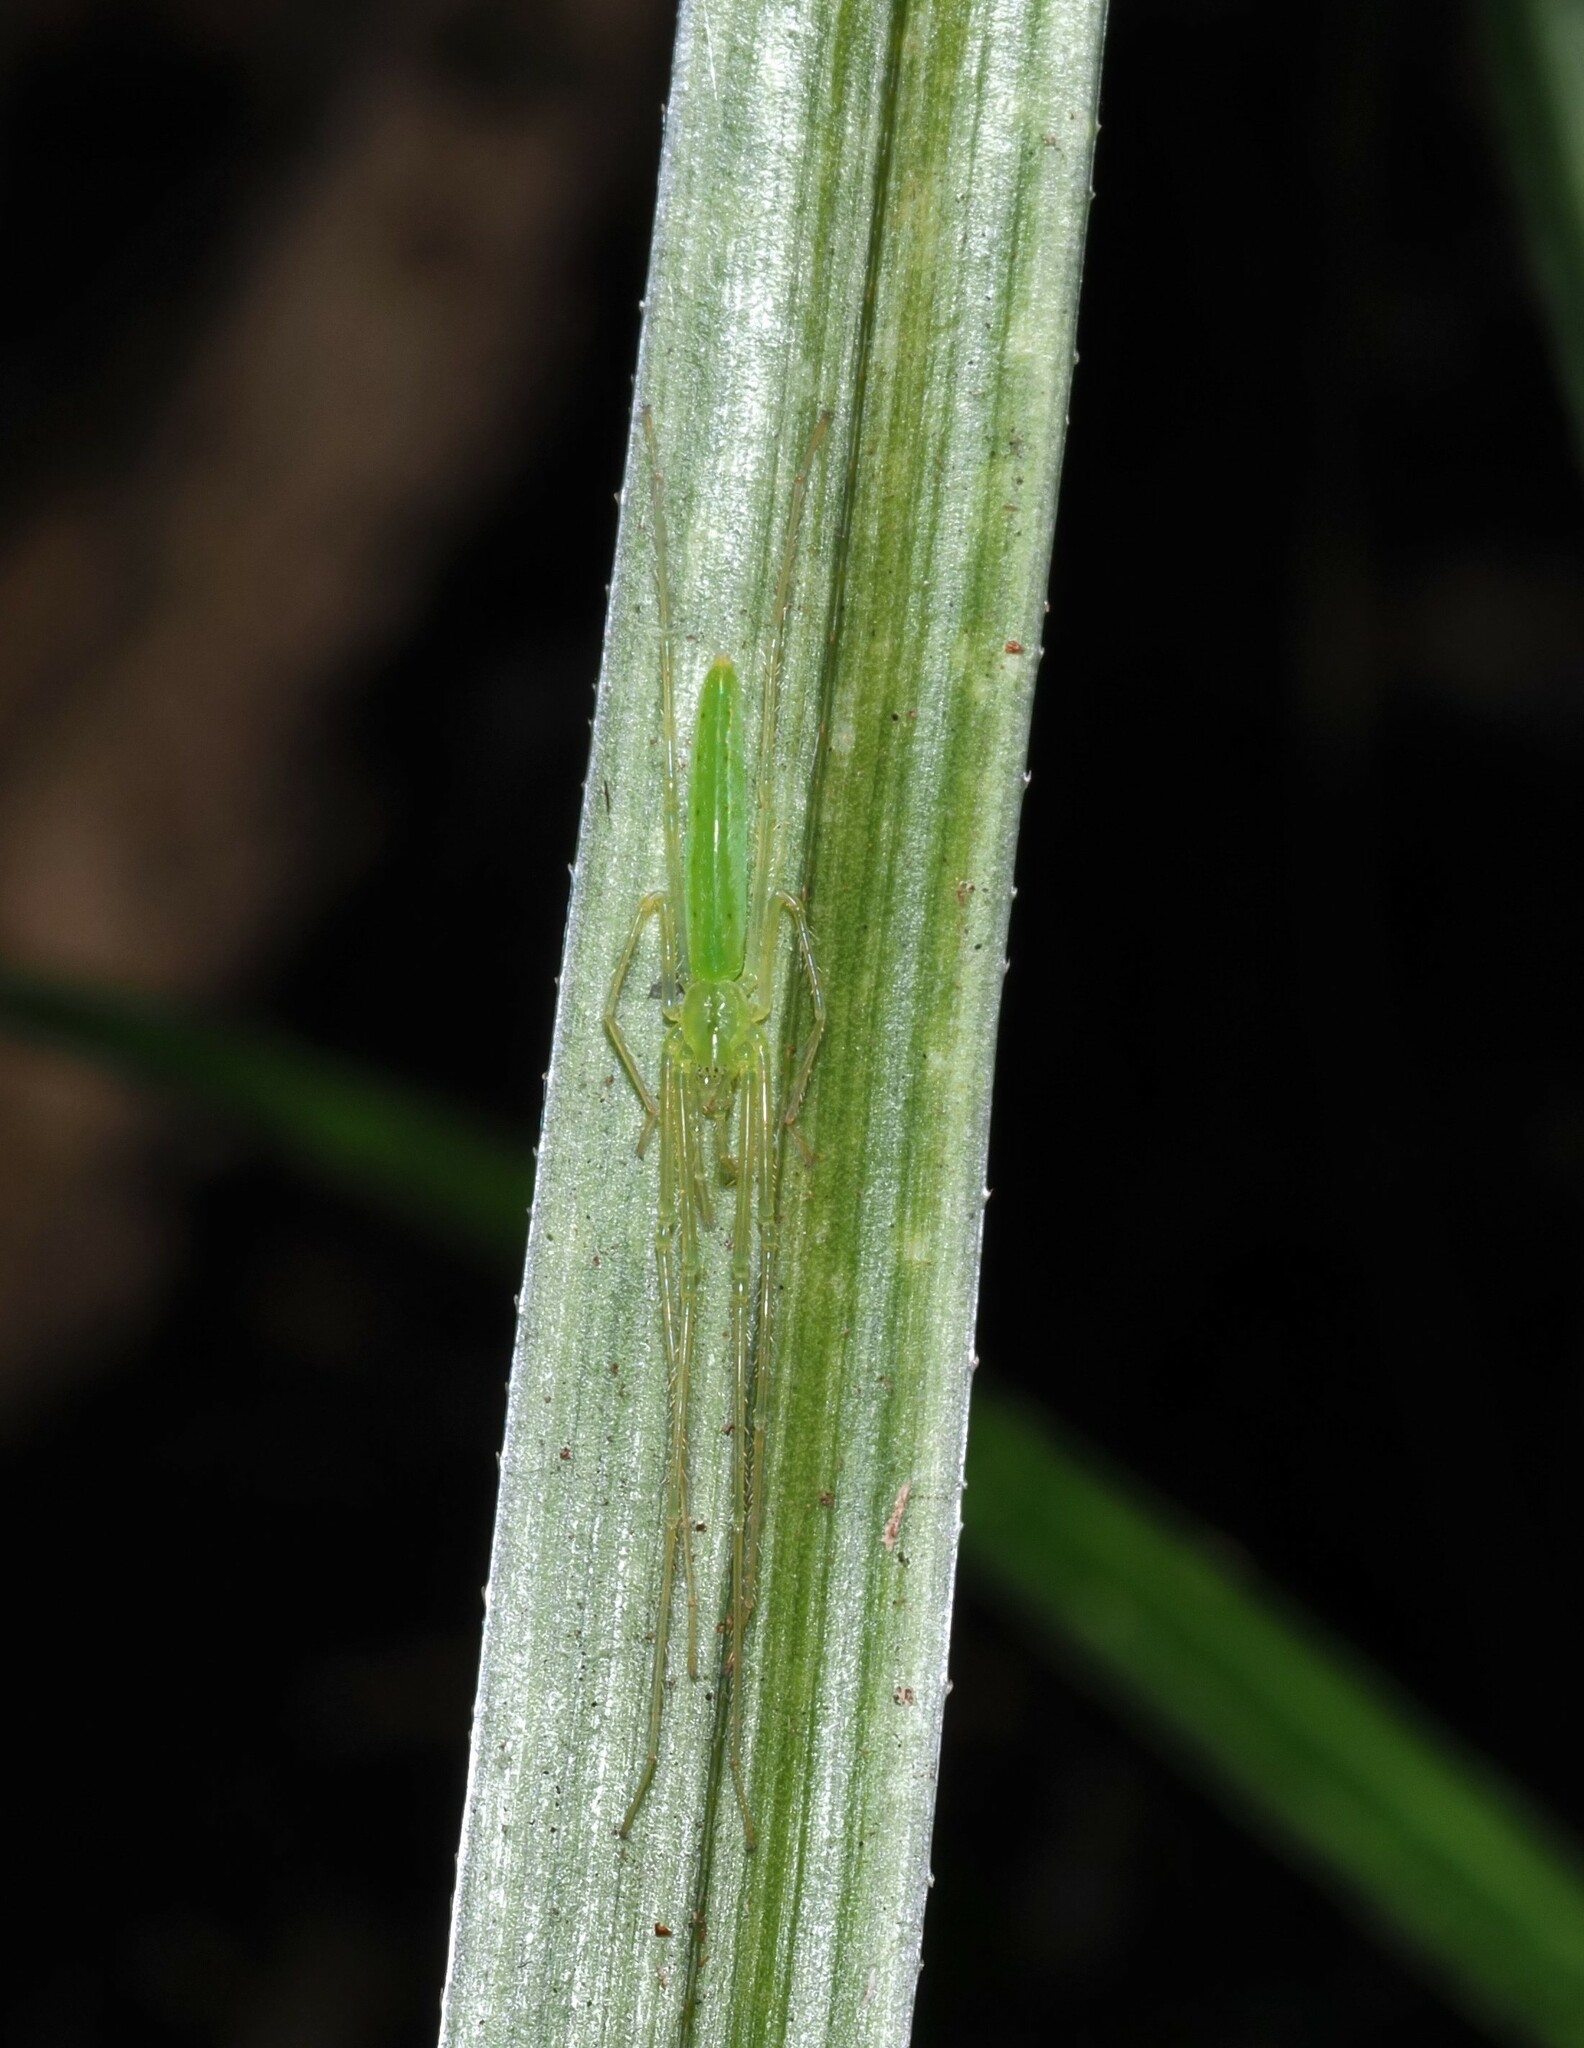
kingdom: Animalia
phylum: Arthropoda
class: Arachnida
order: Araneae
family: Desidae
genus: Ischalea
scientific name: Ischalea spinipes
